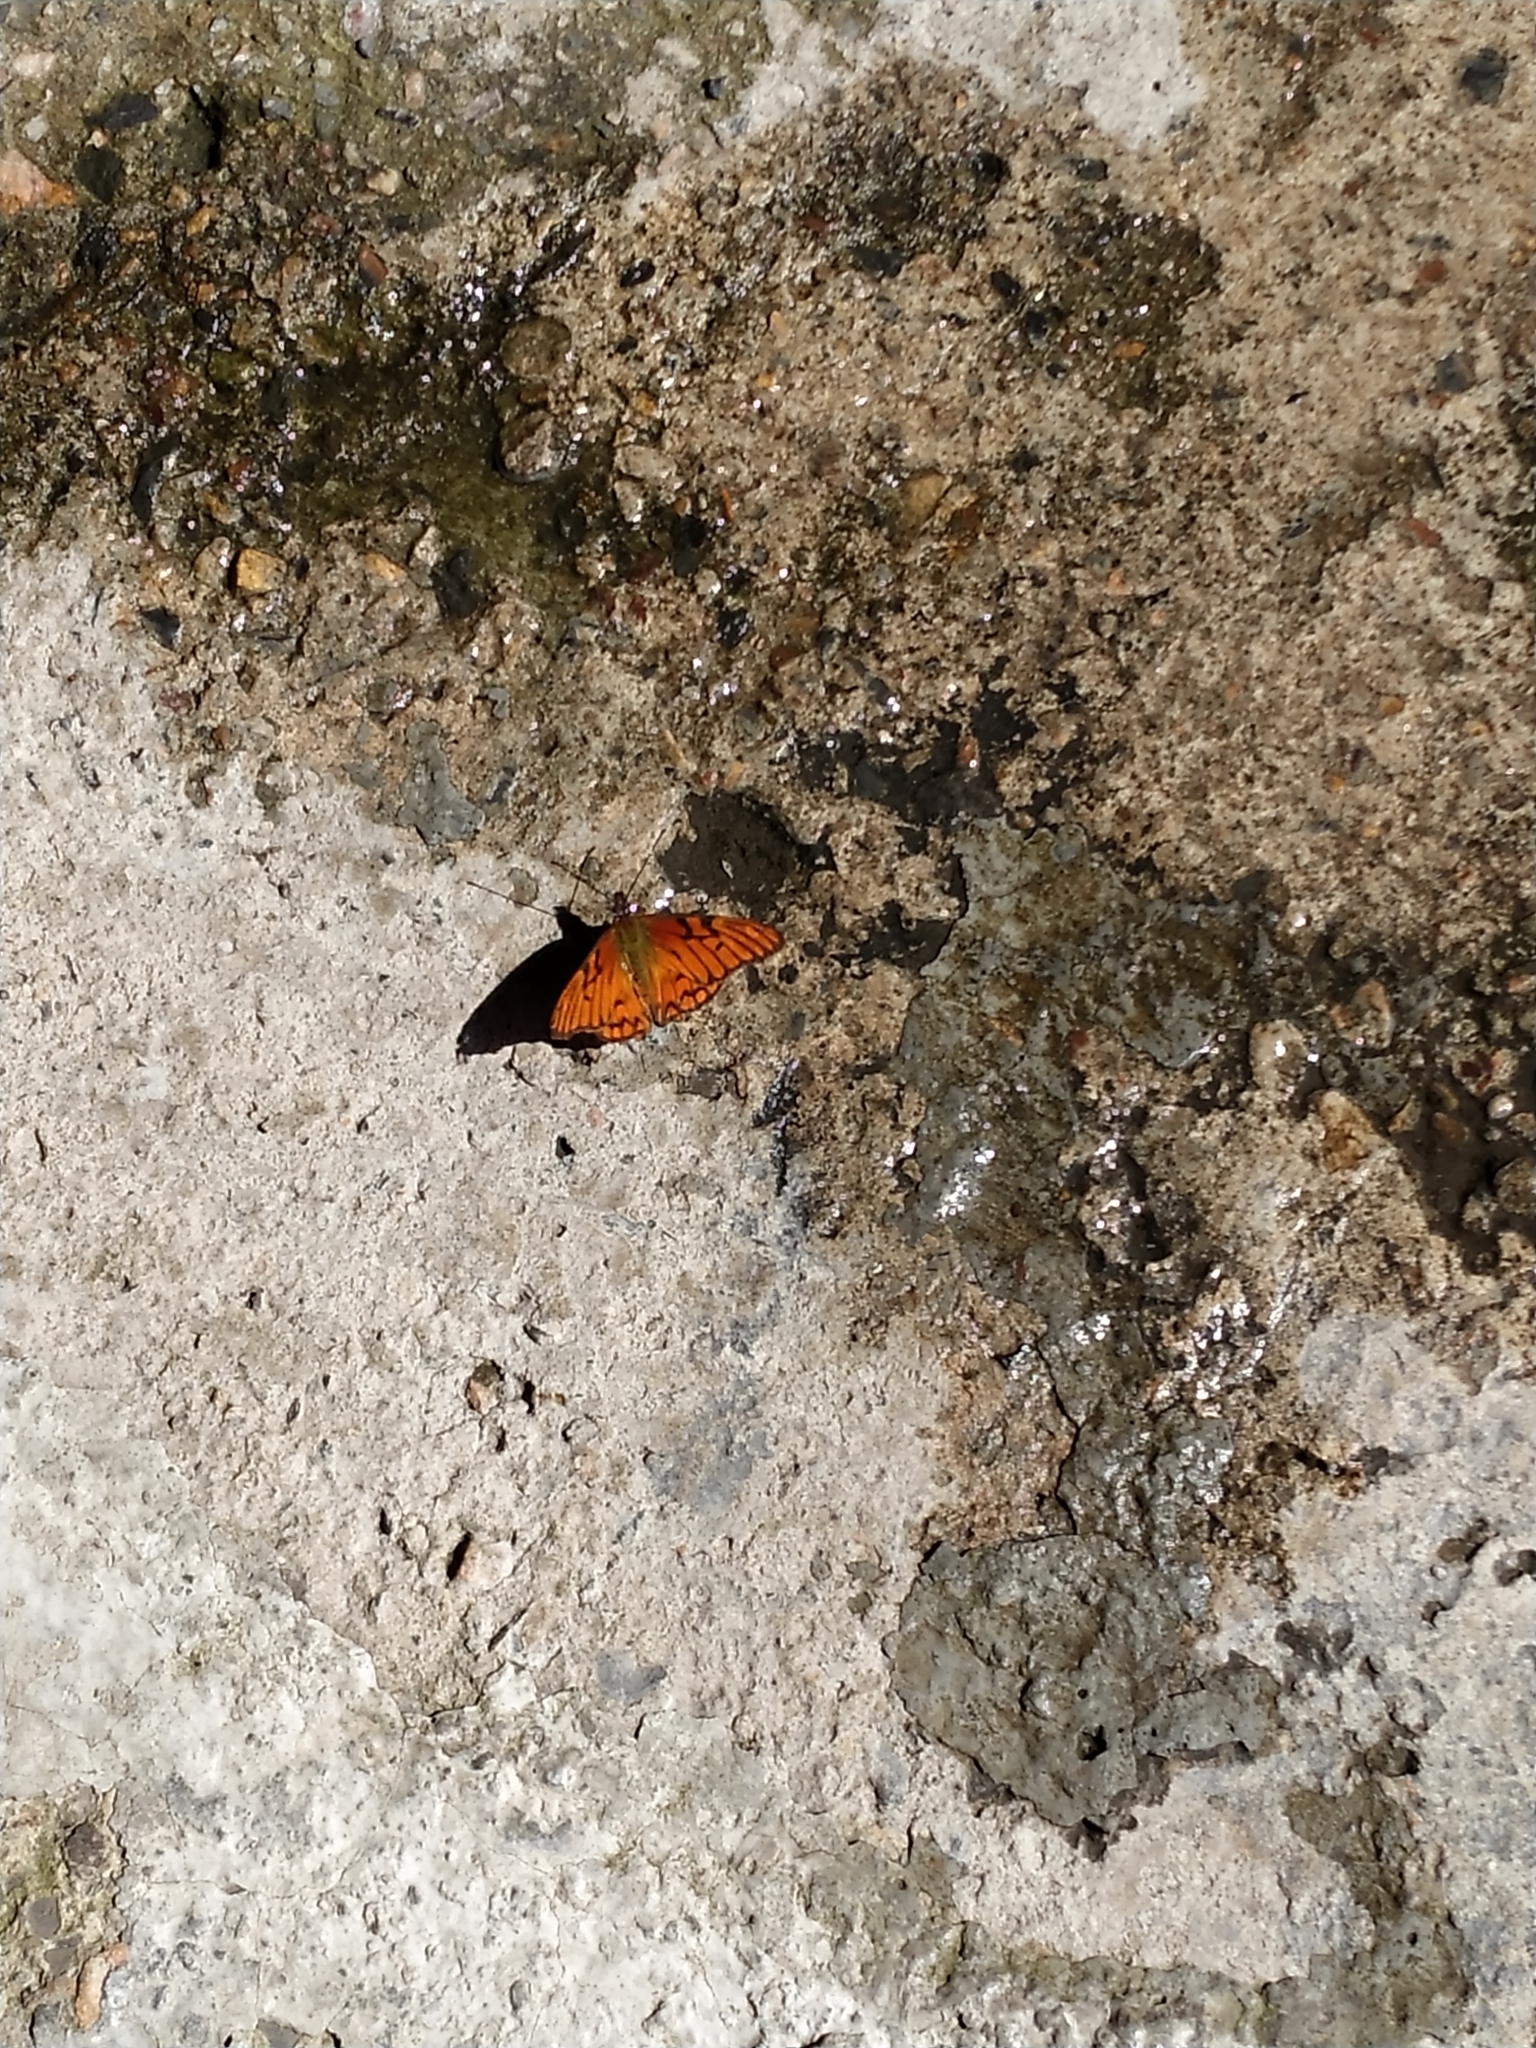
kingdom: Animalia
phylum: Arthropoda
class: Insecta
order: Lepidoptera
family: Nymphalidae
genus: Dione
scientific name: Dione glycera
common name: Andean silverspot
